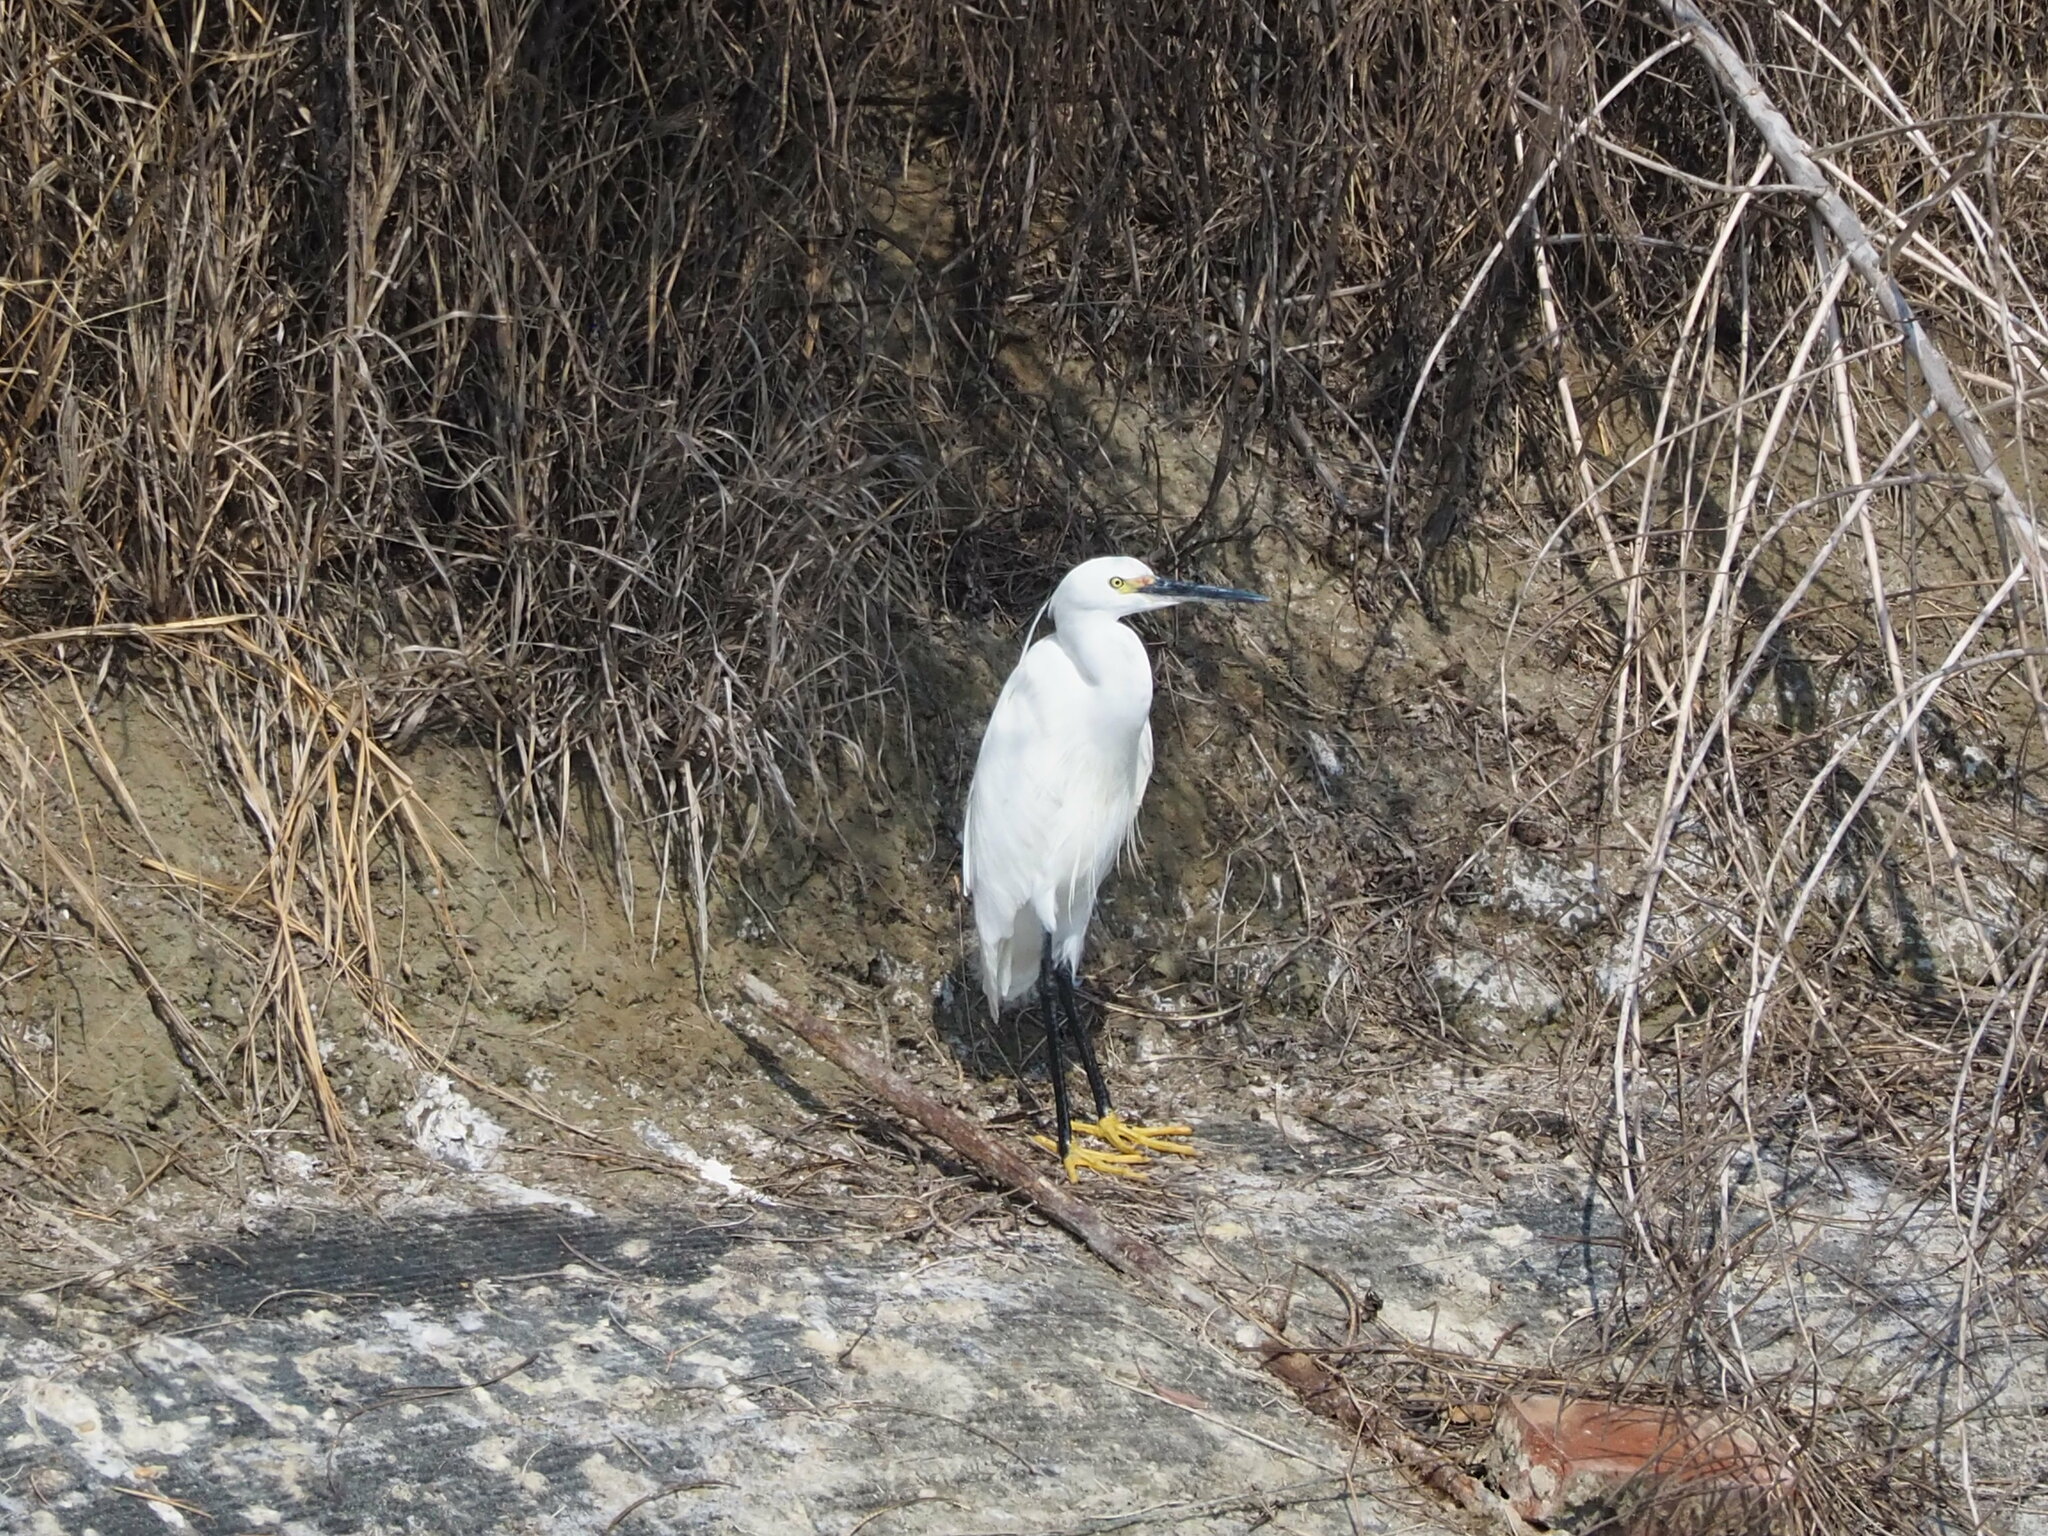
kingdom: Animalia
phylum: Chordata
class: Aves
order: Pelecaniformes
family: Ardeidae
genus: Egretta
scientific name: Egretta garzetta
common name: Little egret
